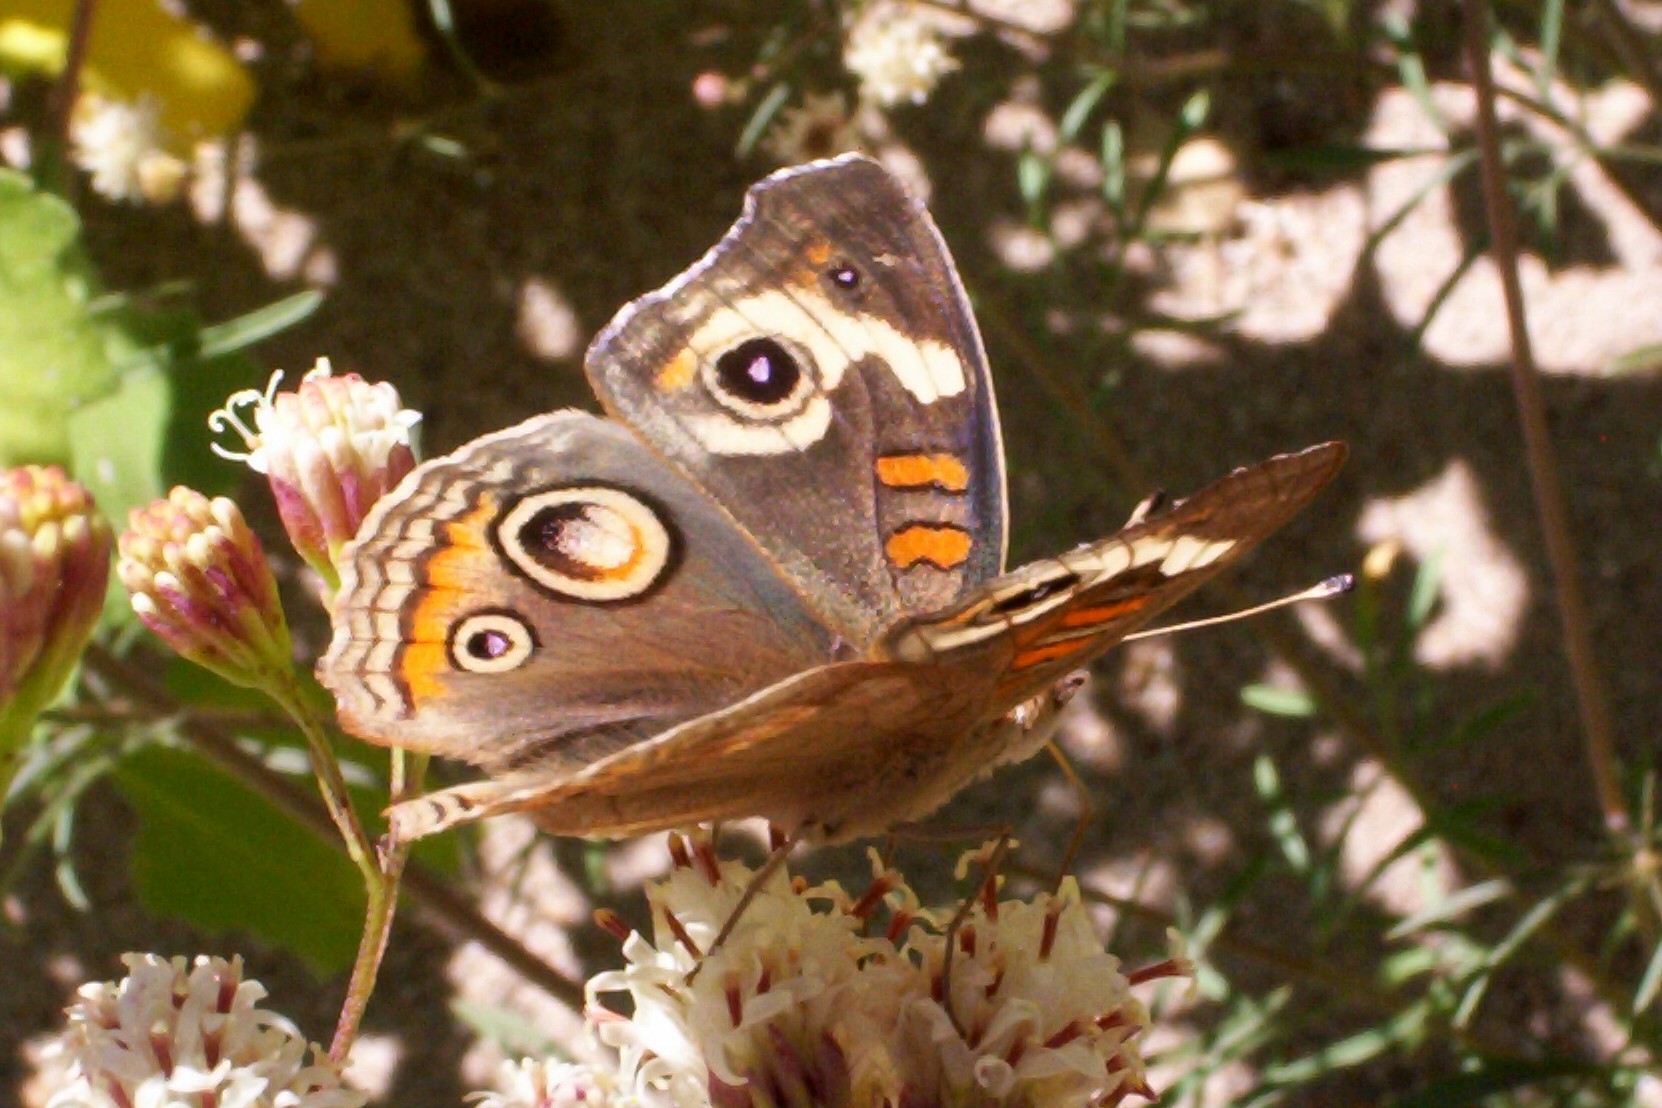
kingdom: Animalia
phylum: Arthropoda
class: Insecta
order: Lepidoptera
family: Nymphalidae
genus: Junonia
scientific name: Junonia grisea
